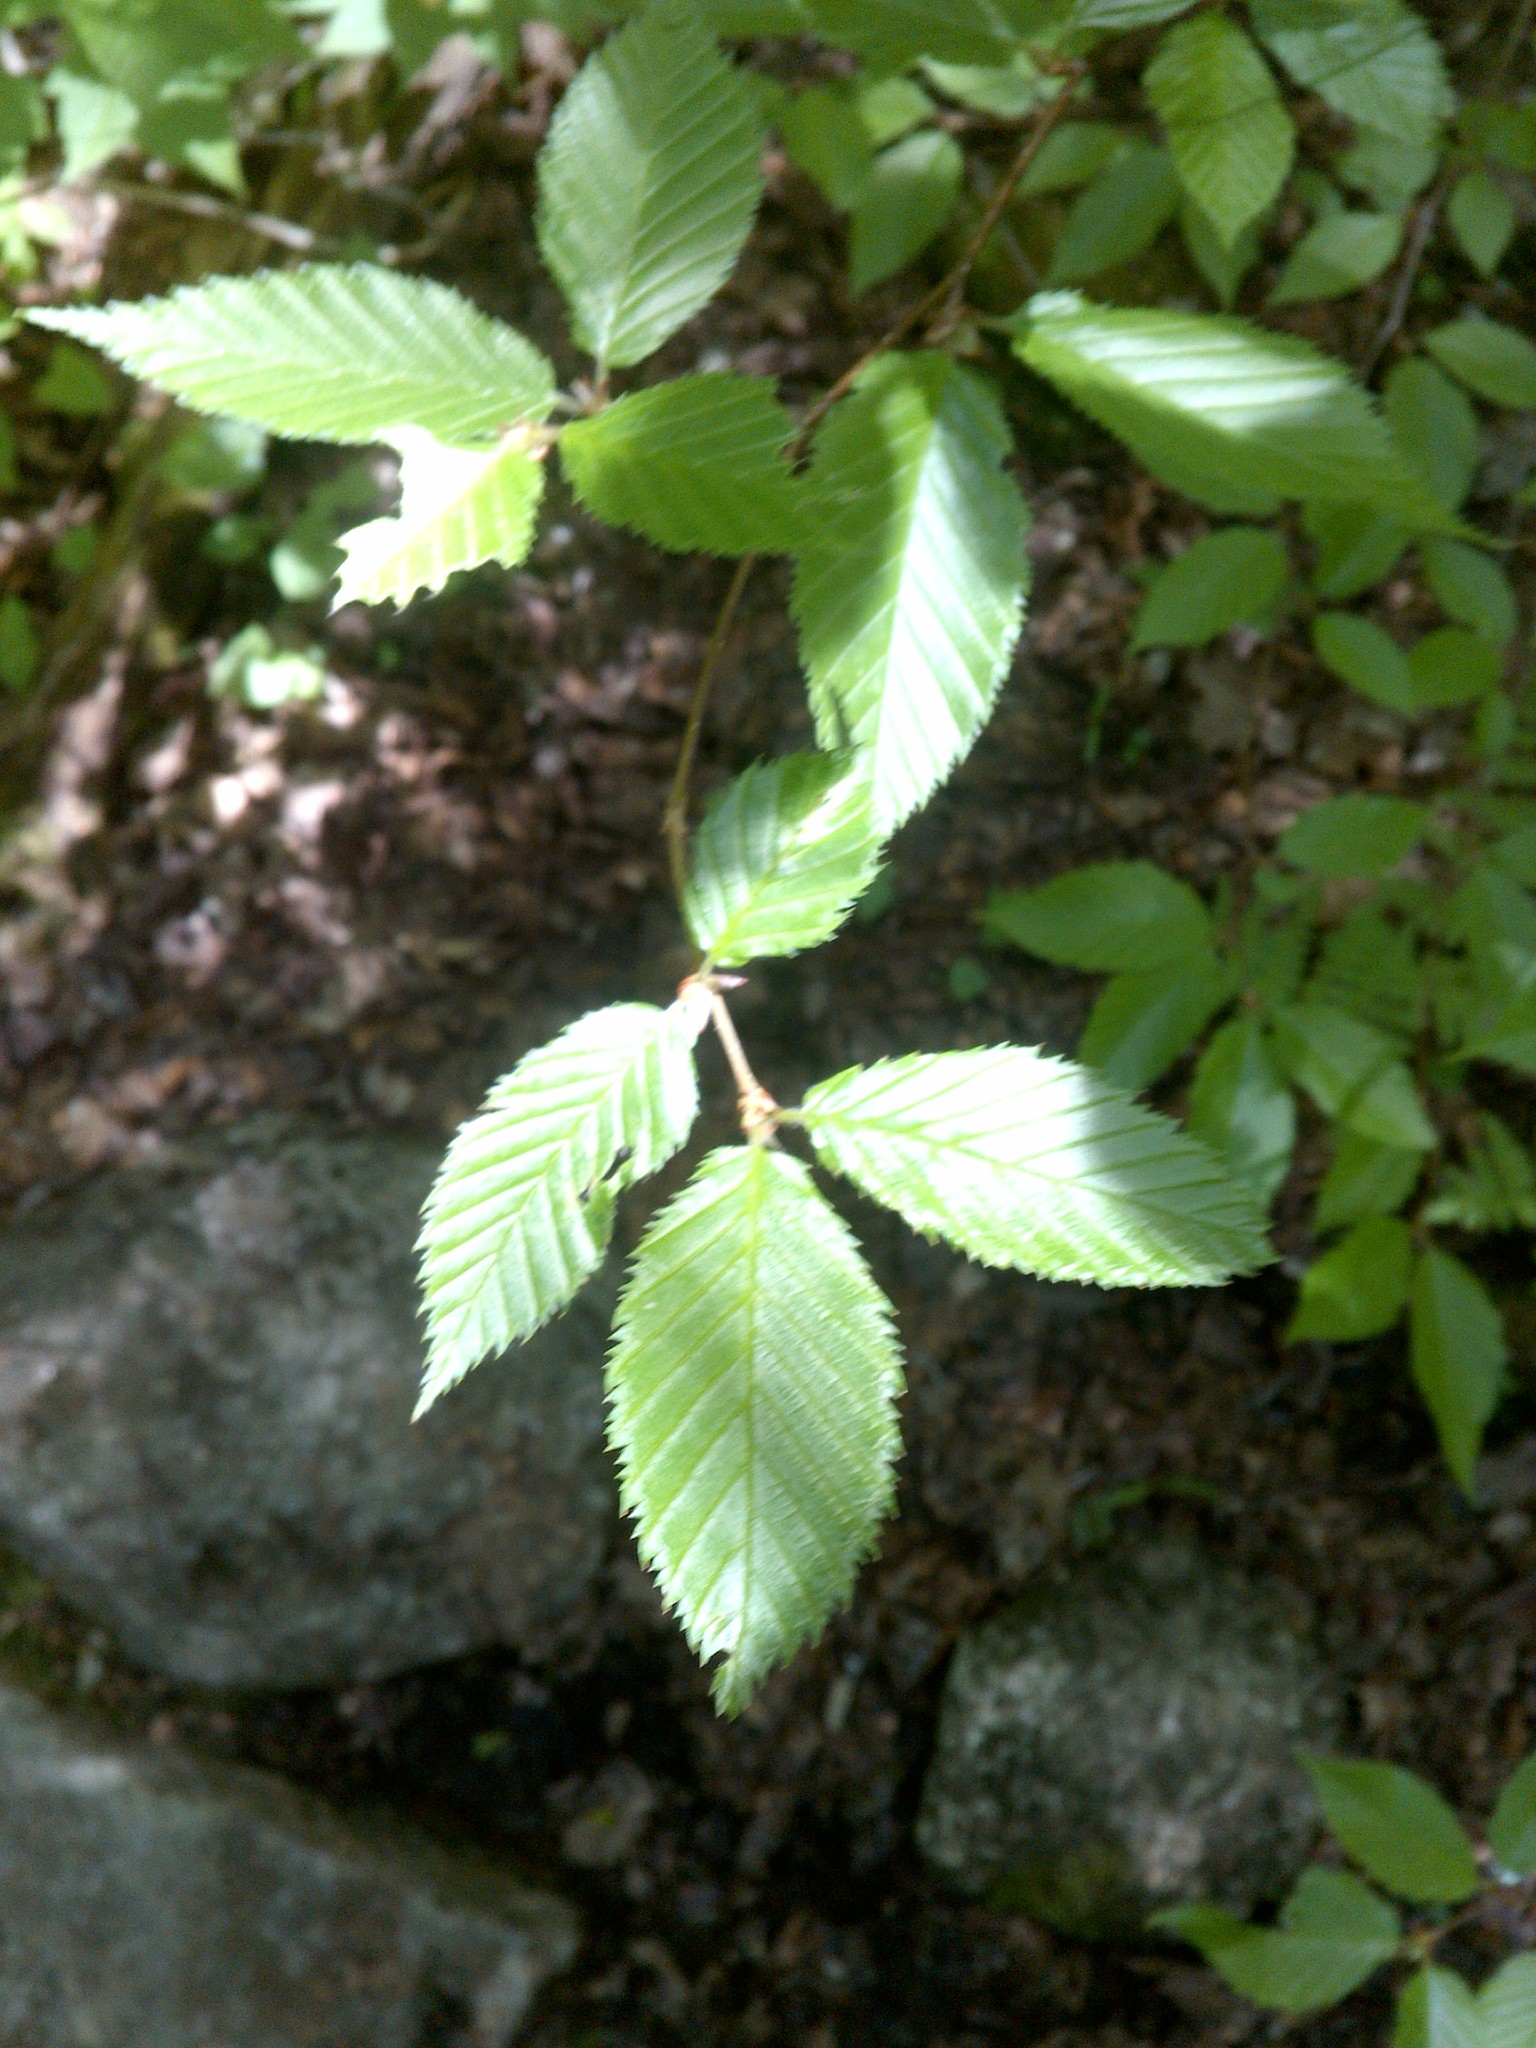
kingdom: Plantae
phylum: Tracheophyta
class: Magnoliopsida
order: Fagales
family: Betulaceae
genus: Betula
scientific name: Betula alleghaniensis
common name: Yellow birch
